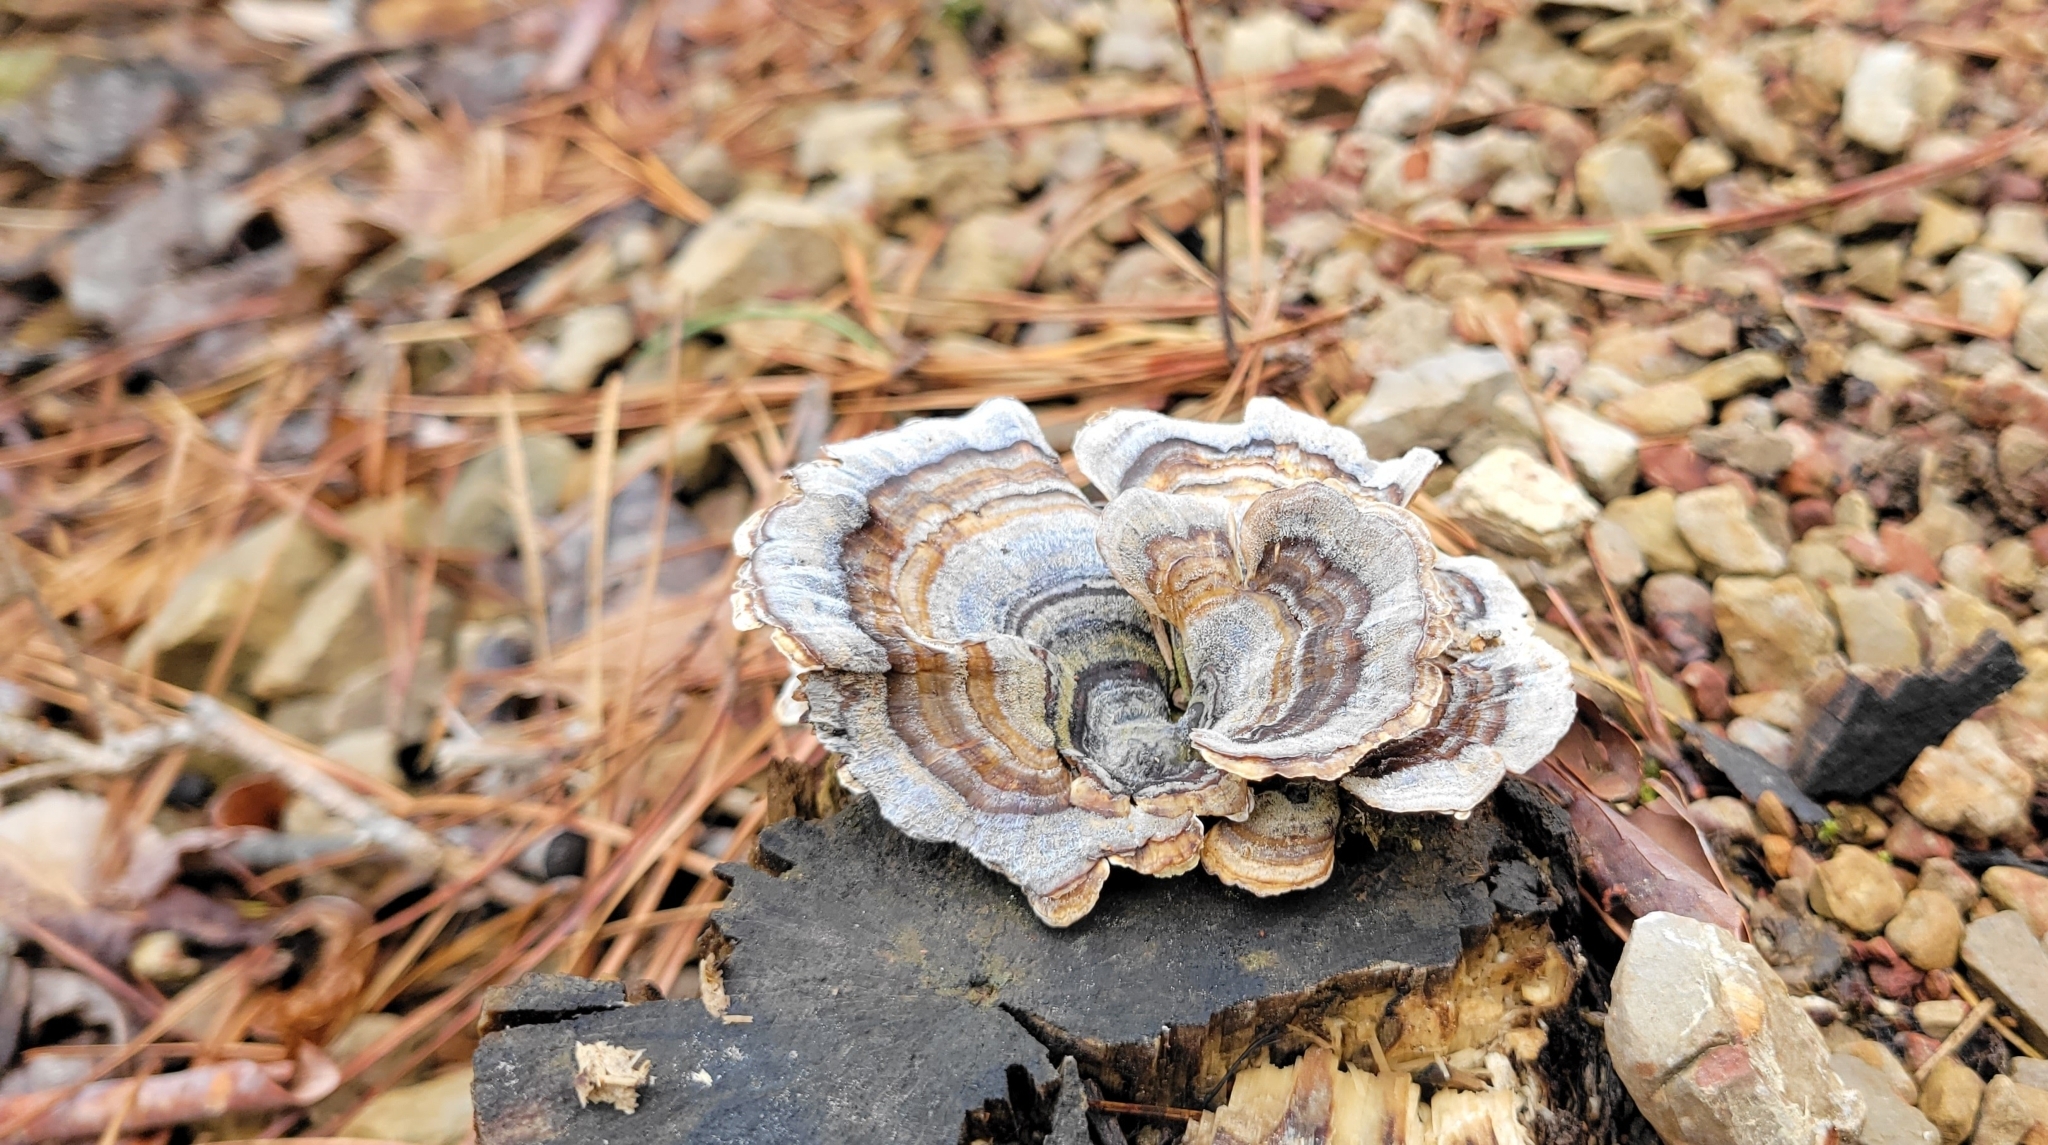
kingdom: Fungi
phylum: Basidiomycota
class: Agaricomycetes
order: Polyporales
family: Polyporaceae
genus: Trametes
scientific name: Trametes versicolor
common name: Turkeytail
